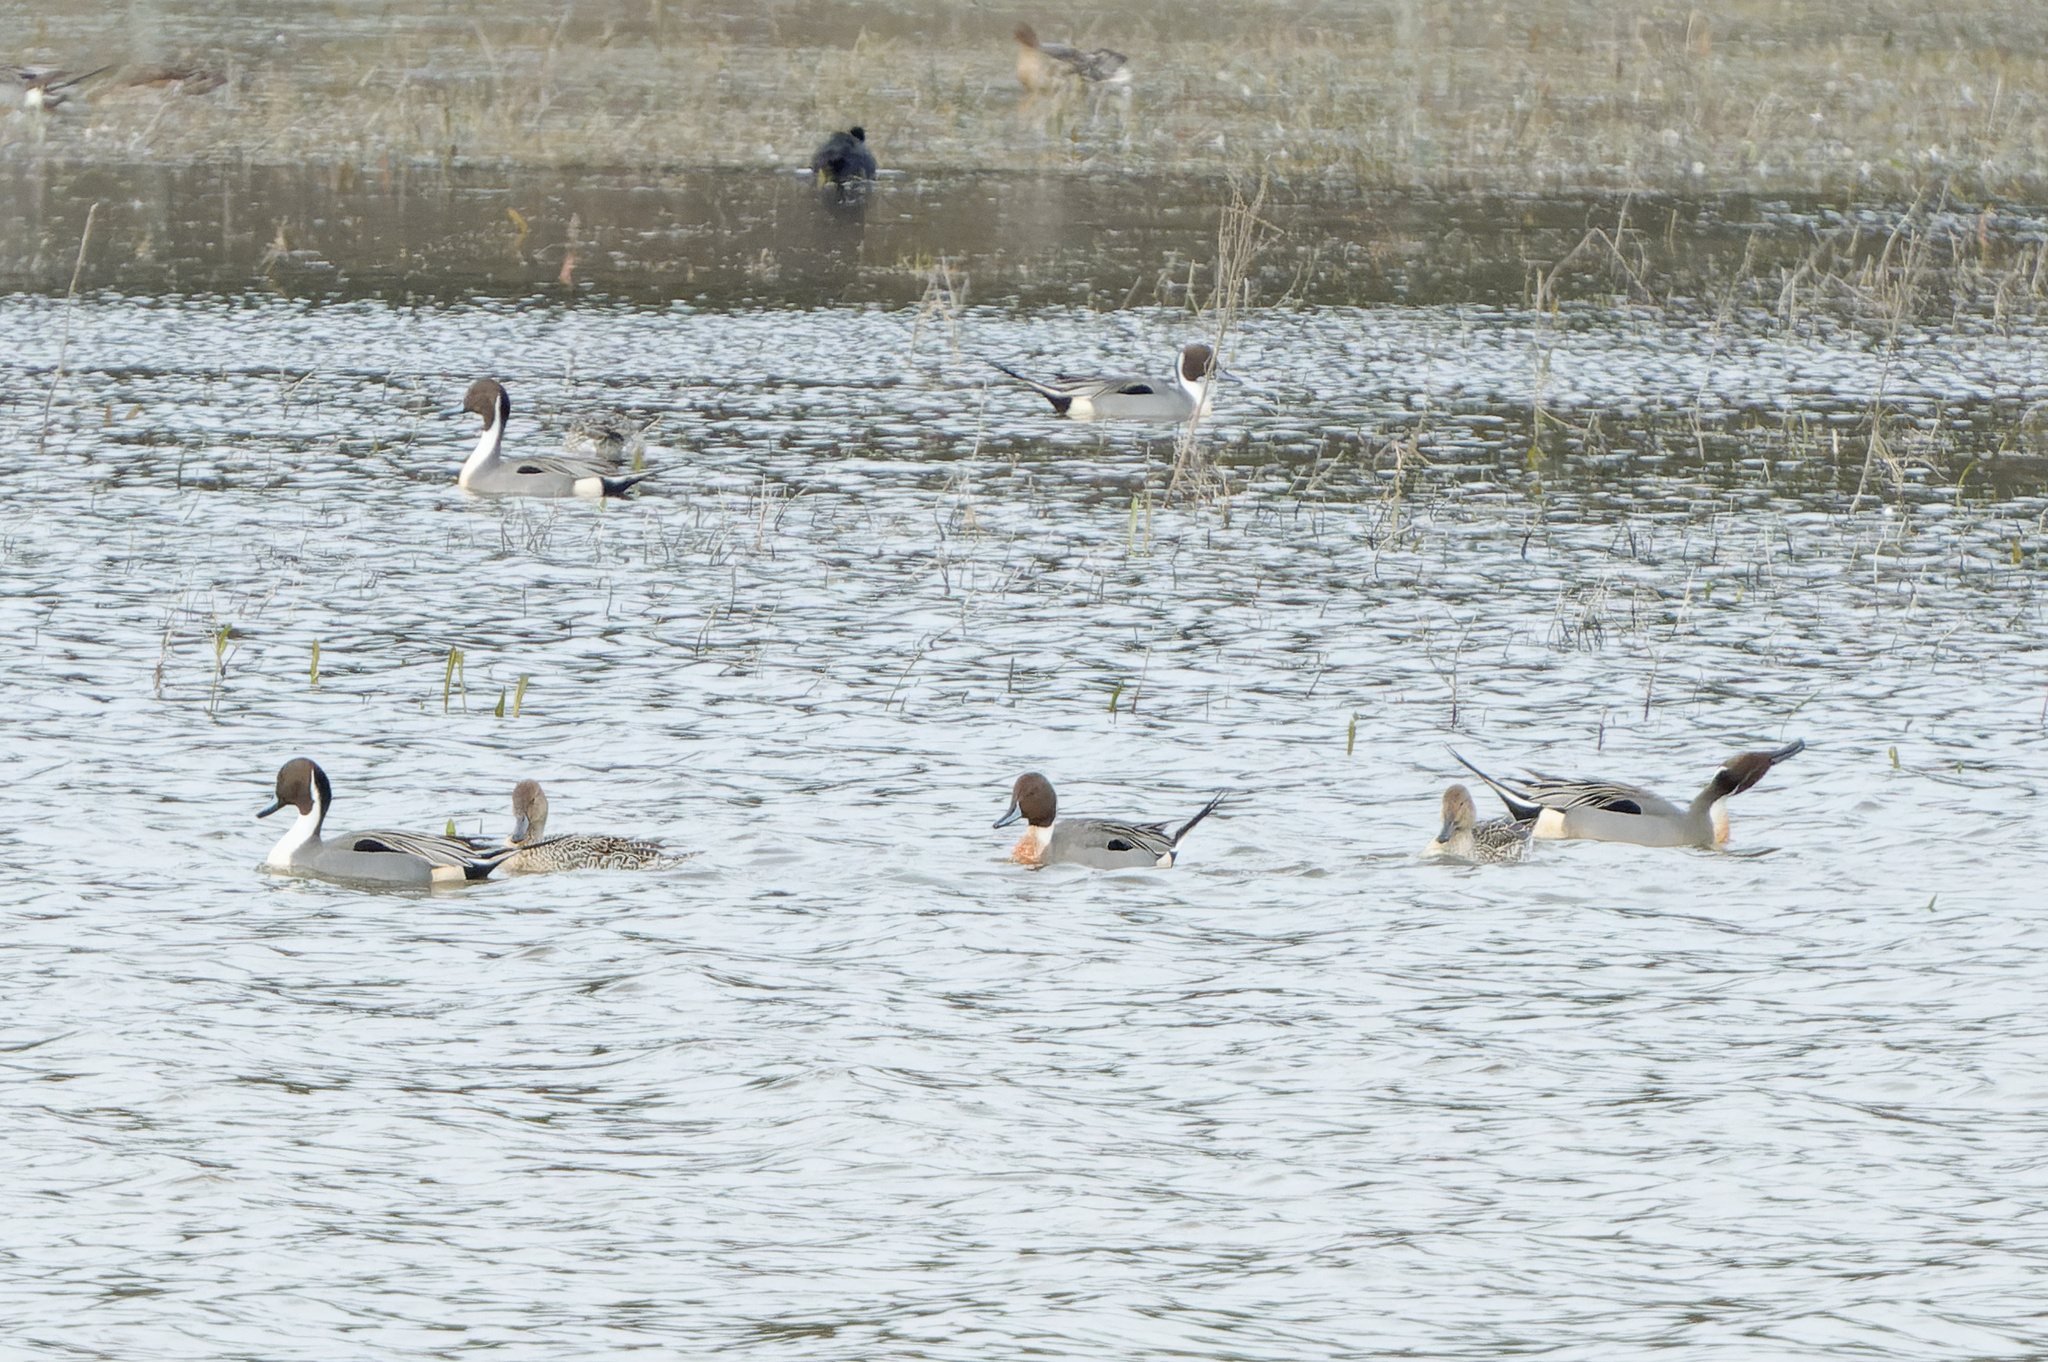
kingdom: Animalia
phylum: Chordata
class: Aves
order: Anseriformes
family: Anatidae
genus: Anas
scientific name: Anas acuta
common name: Northern pintail
